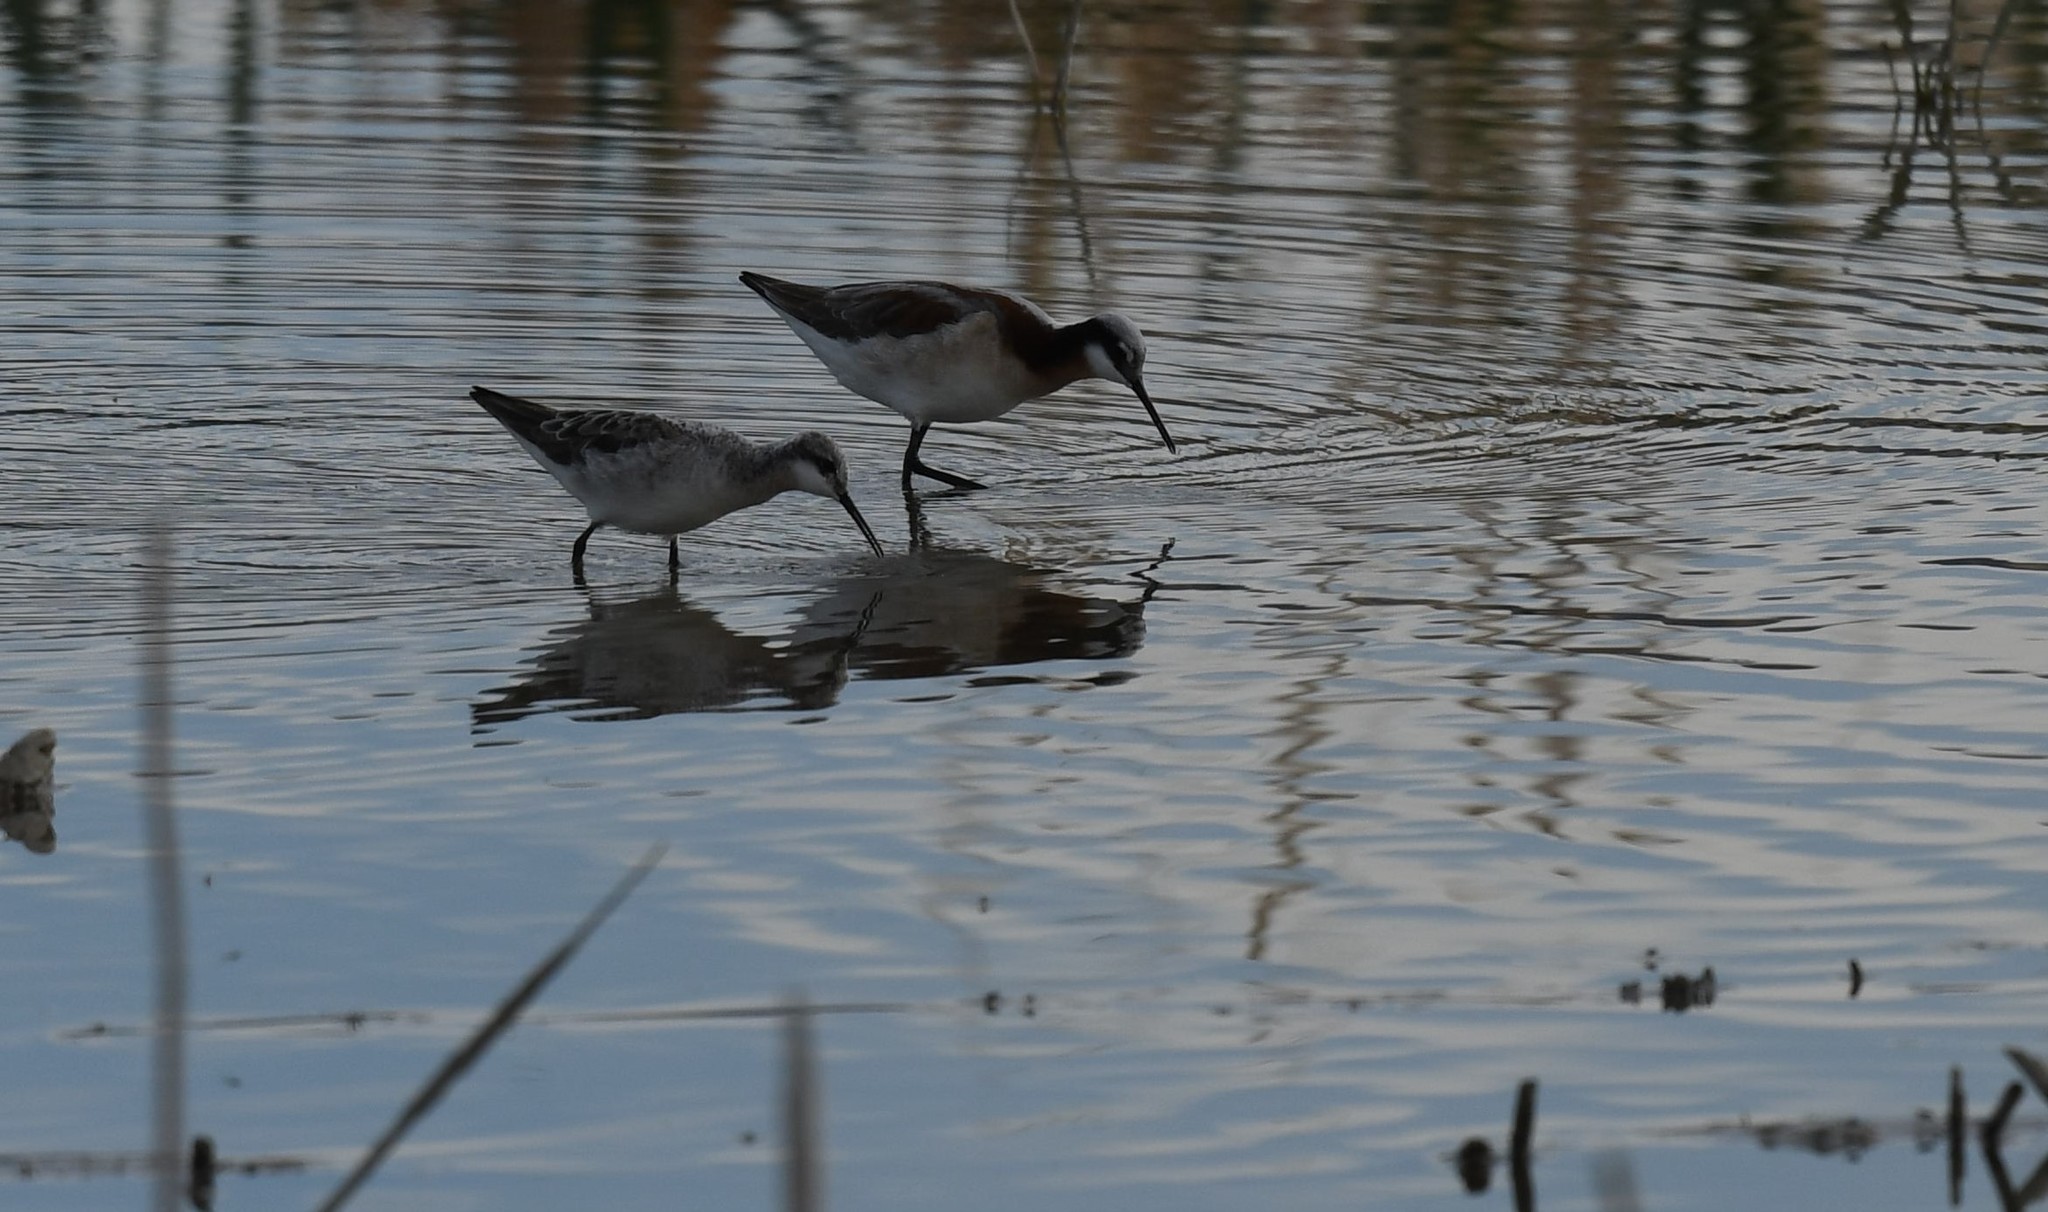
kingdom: Animalia
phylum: Chordata
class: Aves
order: Charadriiformes
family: Scolopacidae
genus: Phalaropus
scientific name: Phalaropus tricolor
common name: Wilson's phalarope
